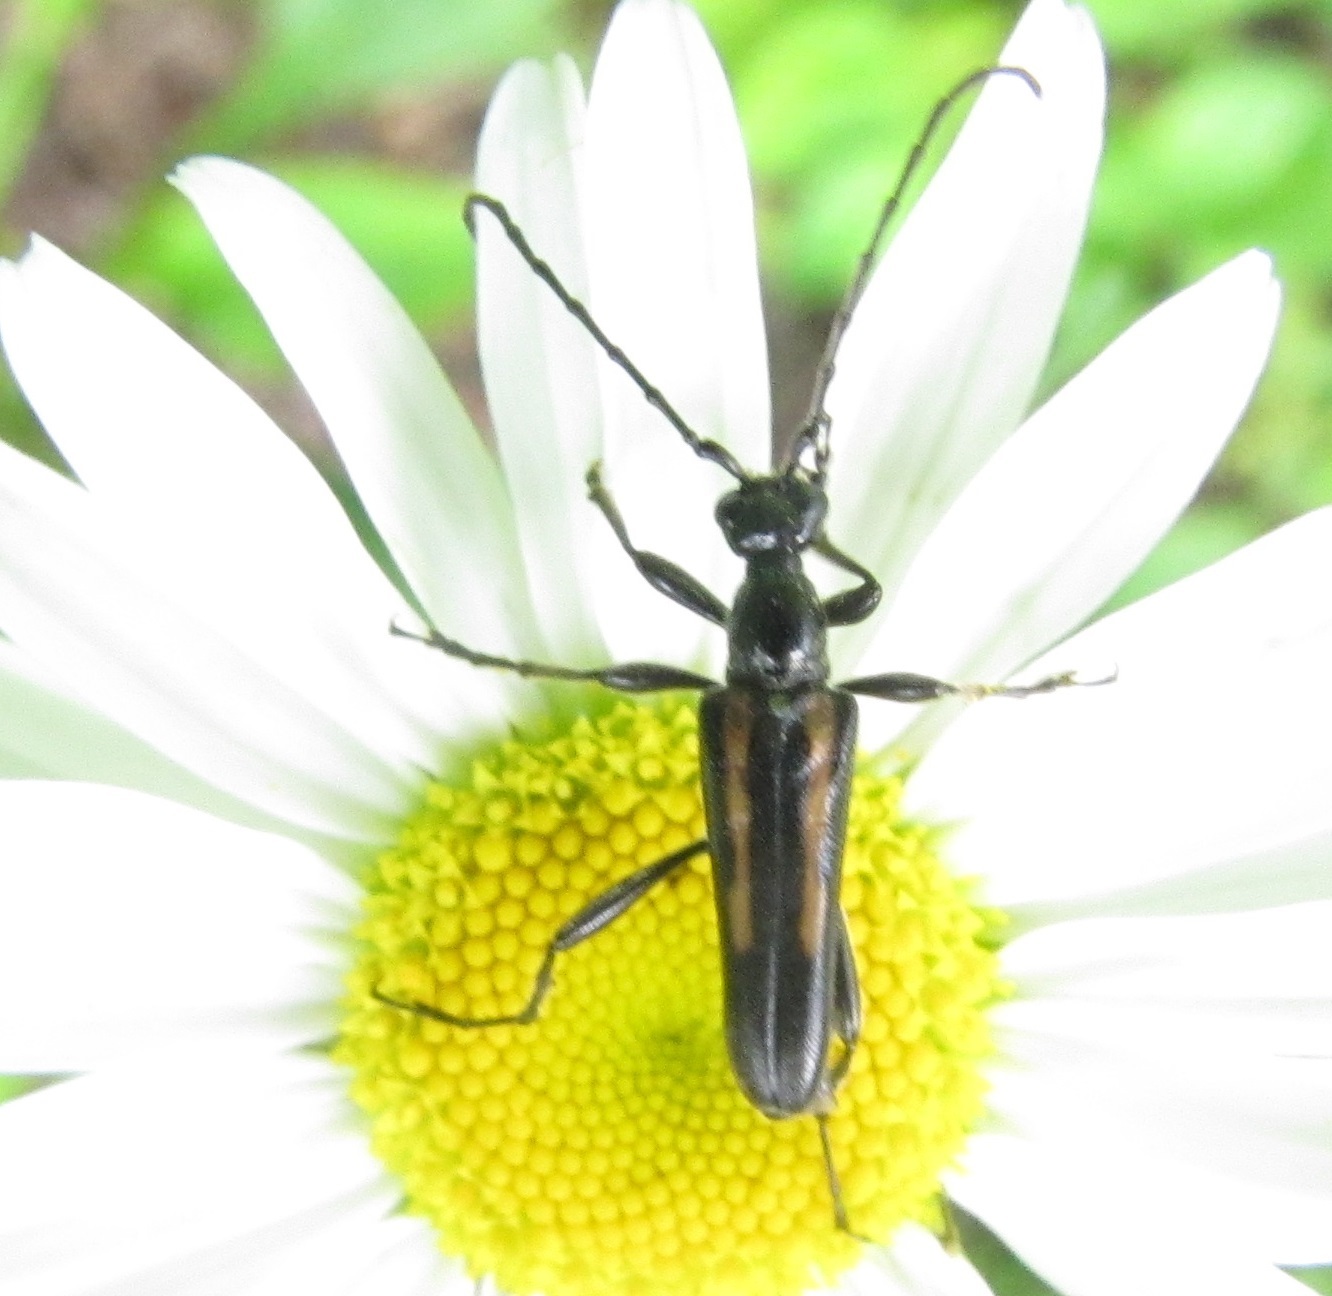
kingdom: Animalia
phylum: Arthropoda
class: Insecta
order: Coleoptera
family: Cerambycidae
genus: Strangalepta
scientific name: Strangalepta abbreviata
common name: Strangalepta flower longhorn beetle
